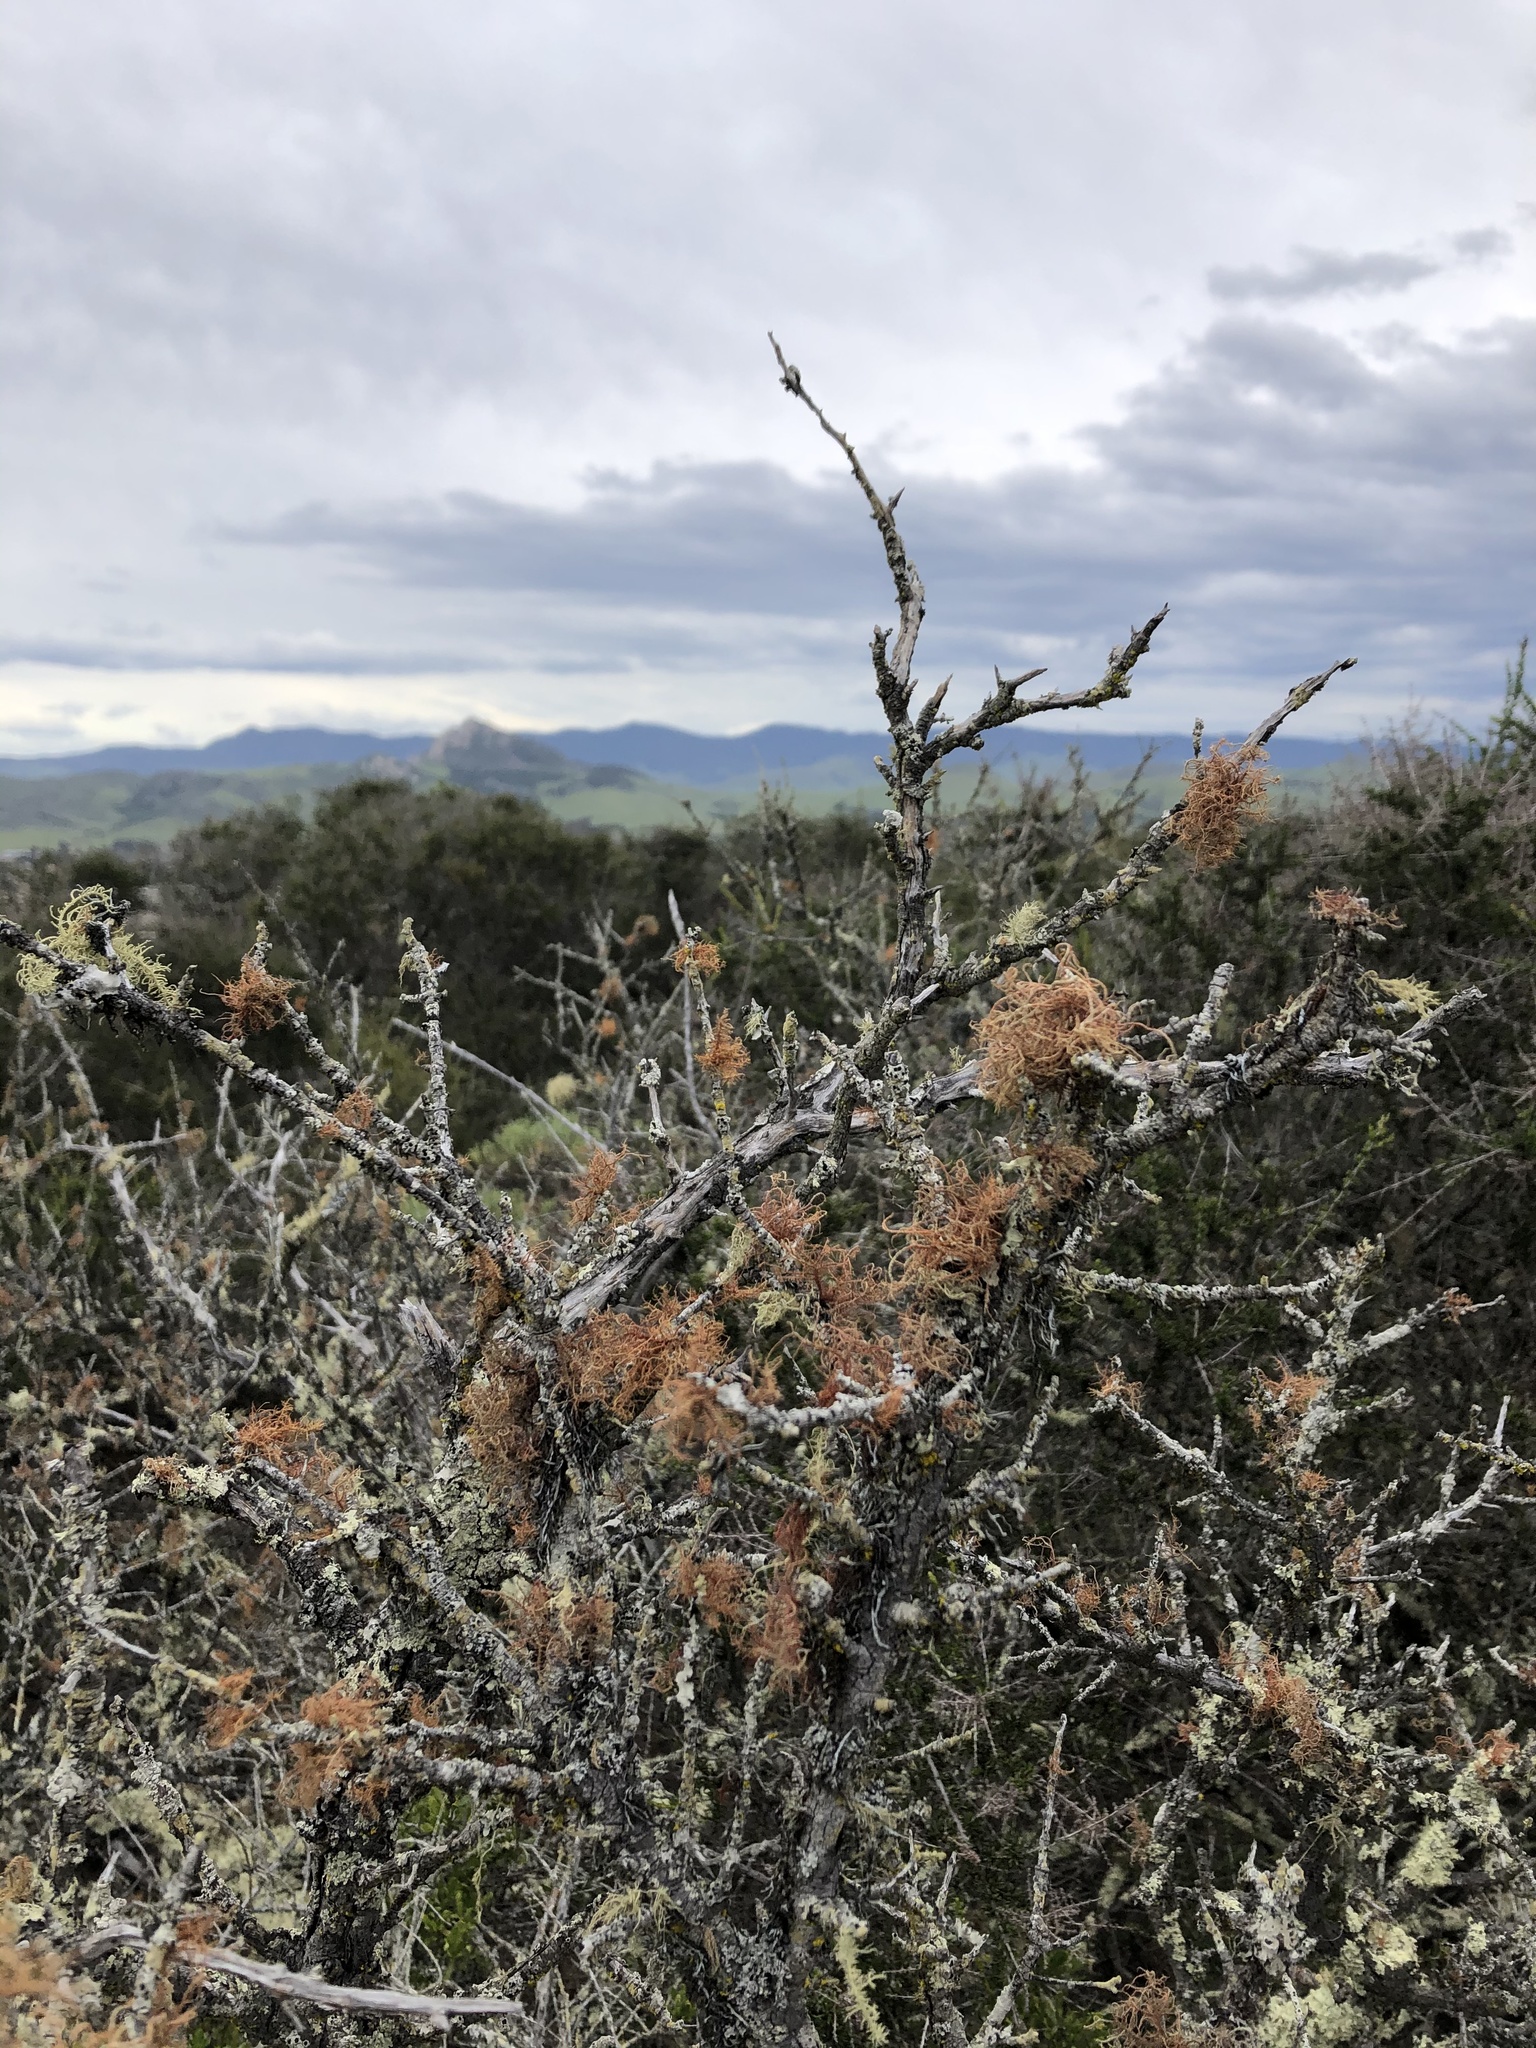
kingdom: Fungi
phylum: Ascomycota
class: Lecanoromycetes
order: Lecanorales
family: Parmeliaceae
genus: Usnea
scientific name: Usnea rubicunda
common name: Red beard lichen
